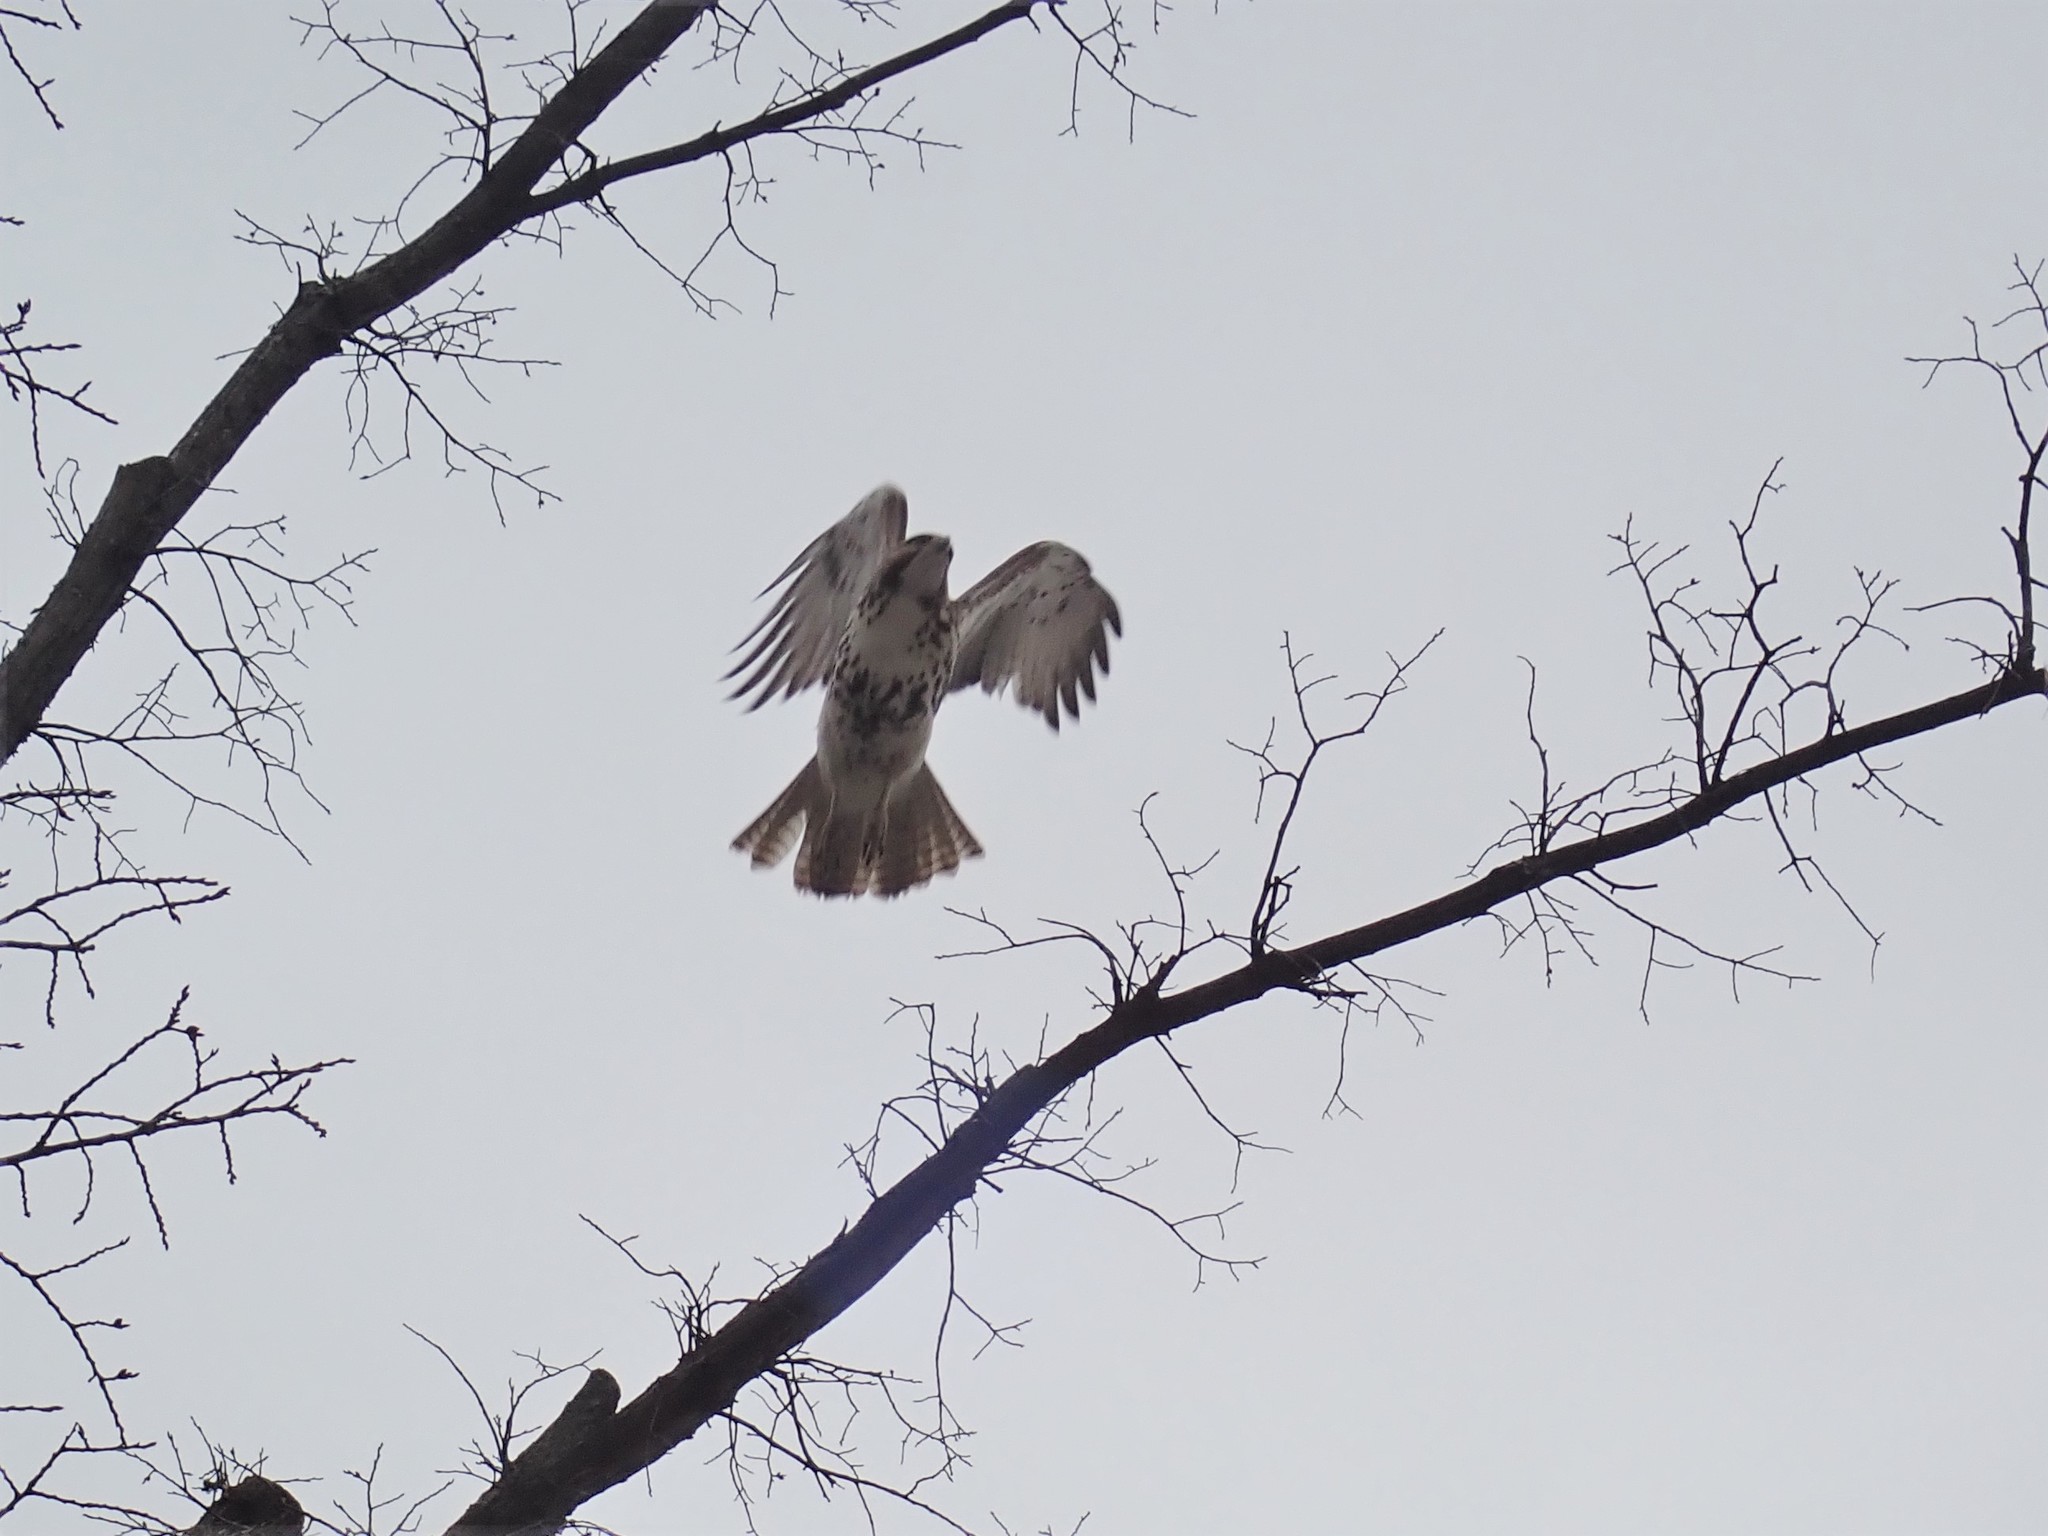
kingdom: Animalia
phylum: Chordata
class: Aves
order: Accipitriformes
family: Accipitridae
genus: Buteo
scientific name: Buteo jamaicensis
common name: Red-tailed hawk
